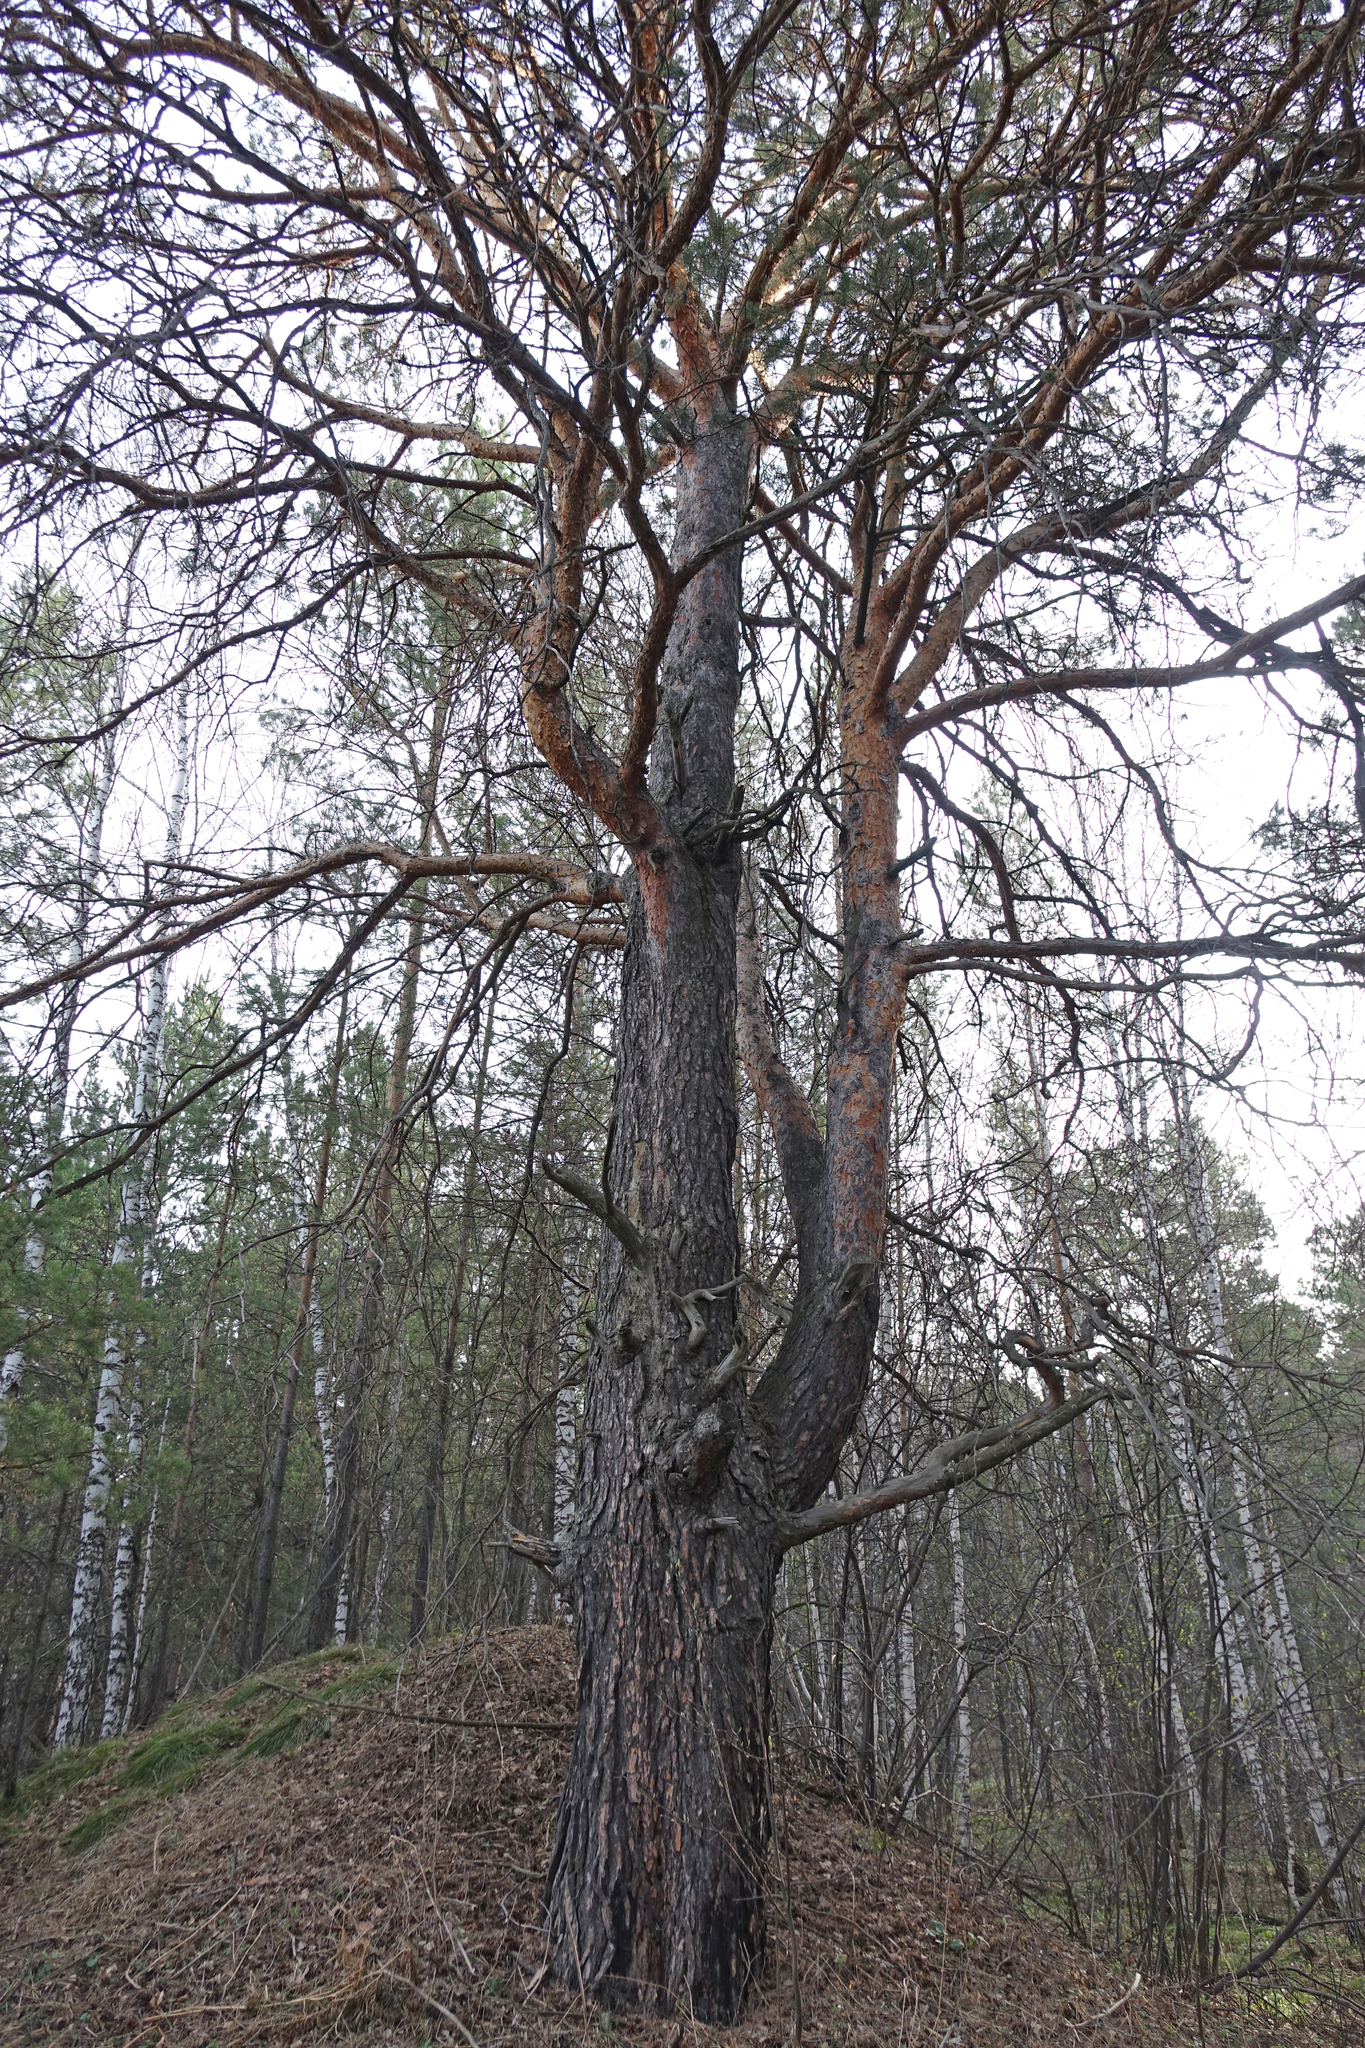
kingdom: Plantae
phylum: Tracheophyta
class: Pinopsida
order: Pinales
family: Pinaceae
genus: Pinus
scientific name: Pinus sylvestris
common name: Scots pine
